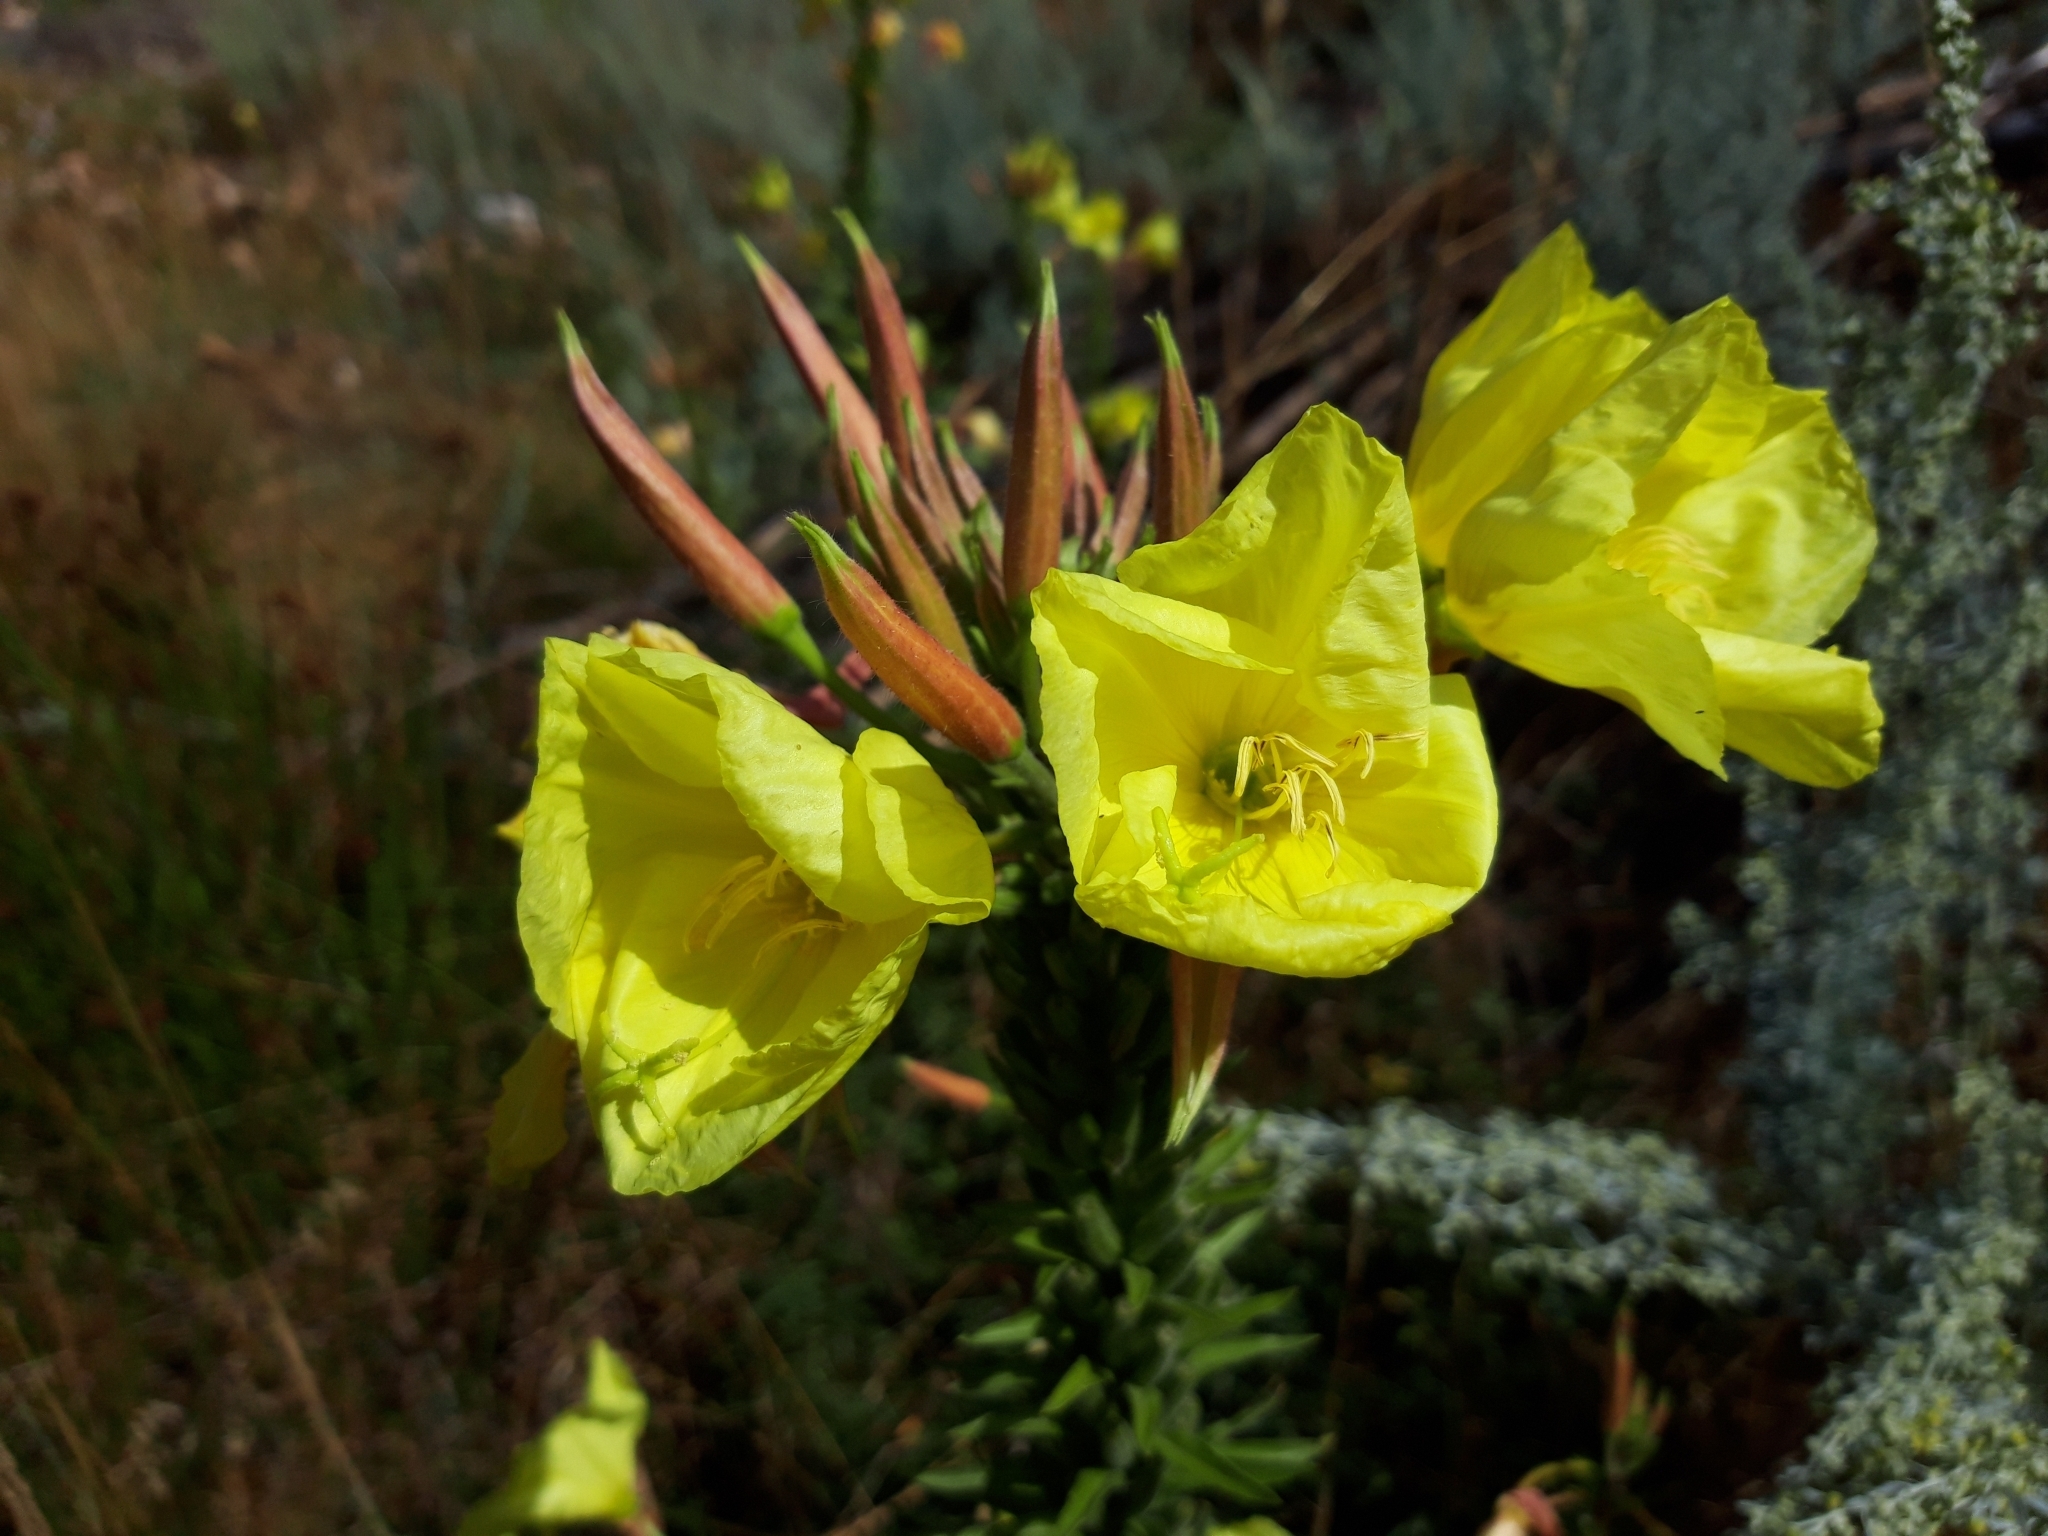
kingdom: Plantae
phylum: Tracheophyta
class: Magnoliopsida
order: Myrtales
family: Onagraceae
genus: Oenothera
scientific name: Oenothera glazioviana
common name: Large-flowered evening-primrose
